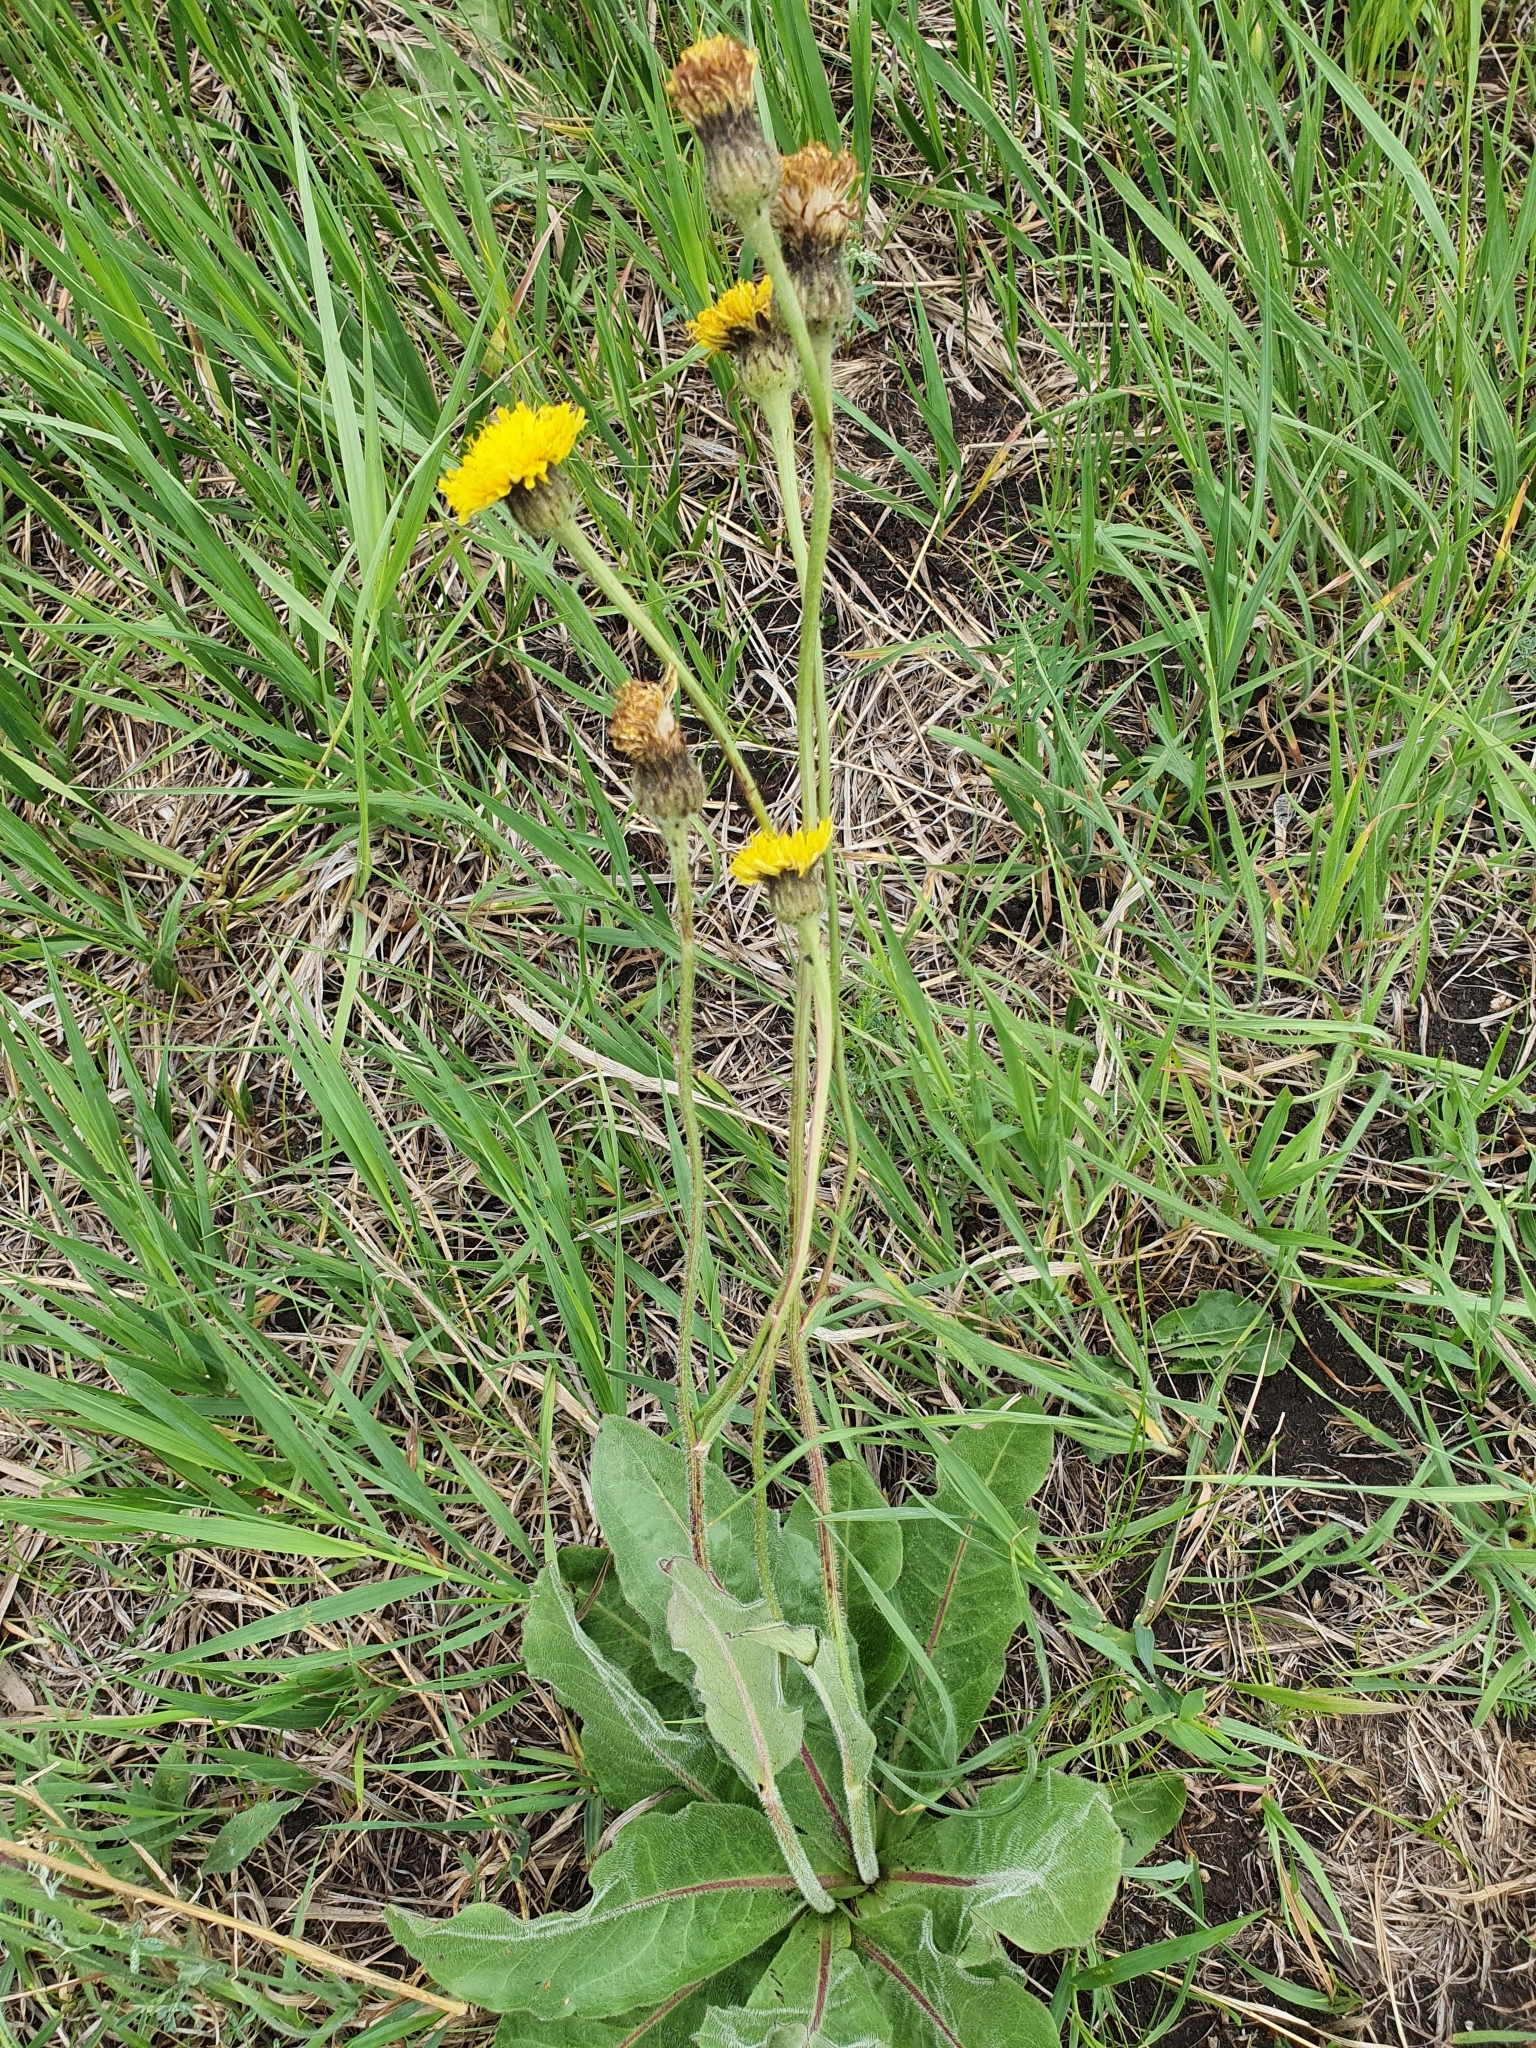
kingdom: Plantae
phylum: Tracheophyta
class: Magnoliopsida
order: Asterales
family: Asteraceae
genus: Trommsdorffia
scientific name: Trommsdorffia maculata
